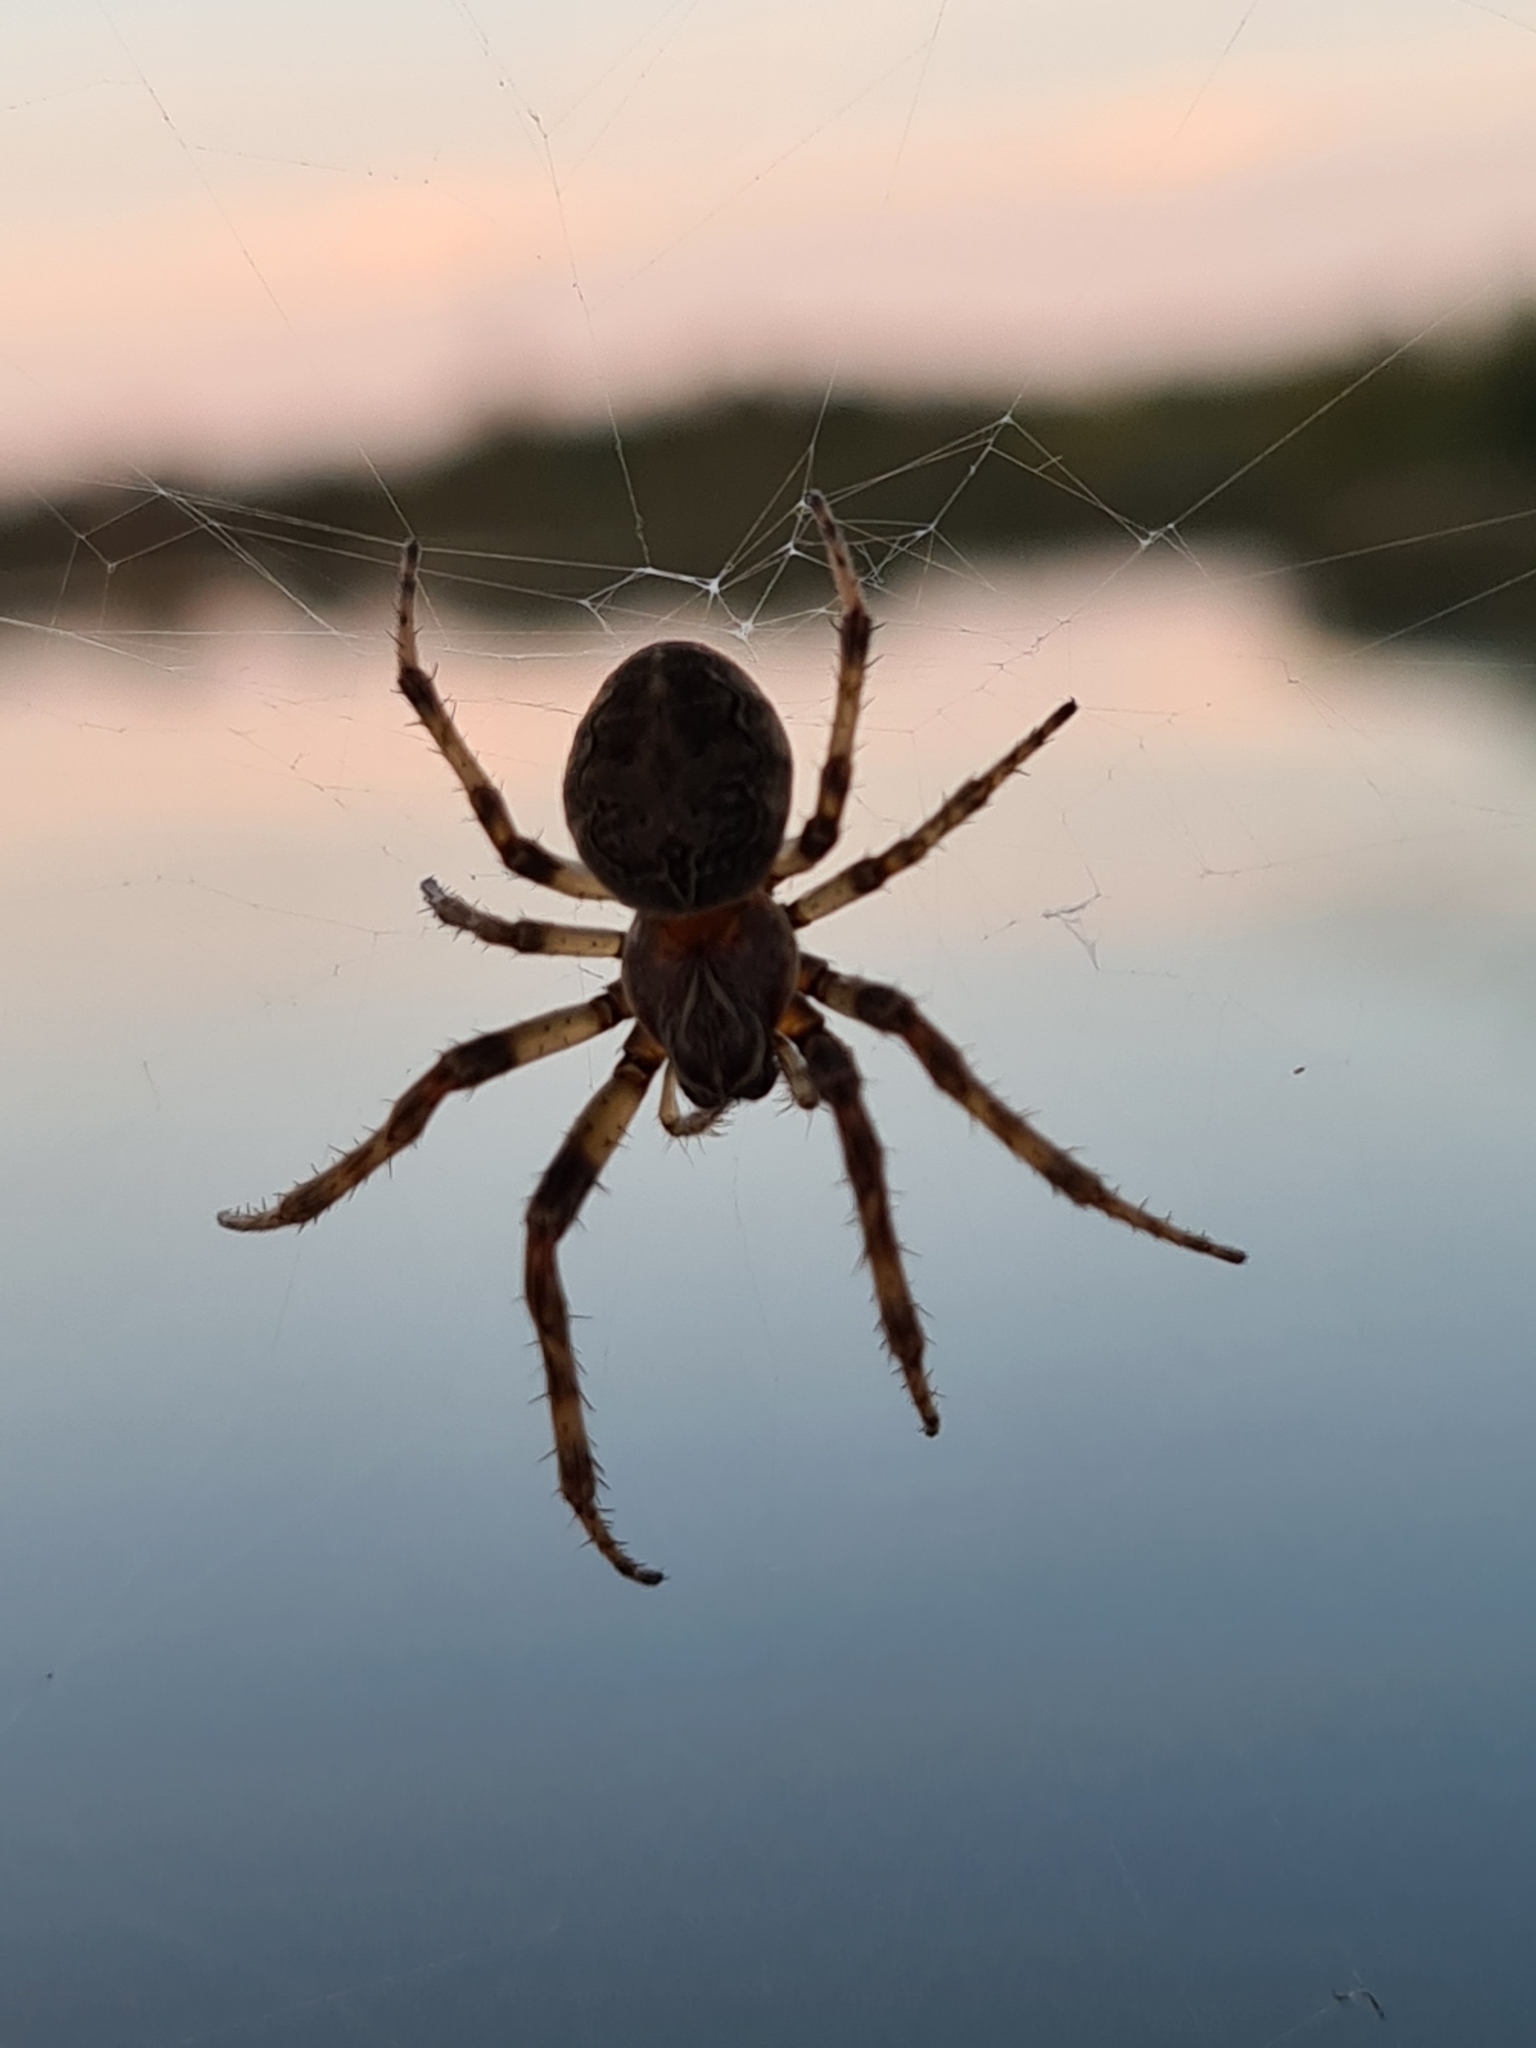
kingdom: Animalia
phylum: Arthropoda
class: Arachnida
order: Araneae
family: Araneidae
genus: Larinioides
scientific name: Larinioides sclopetarius
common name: Bridge orbweaver
